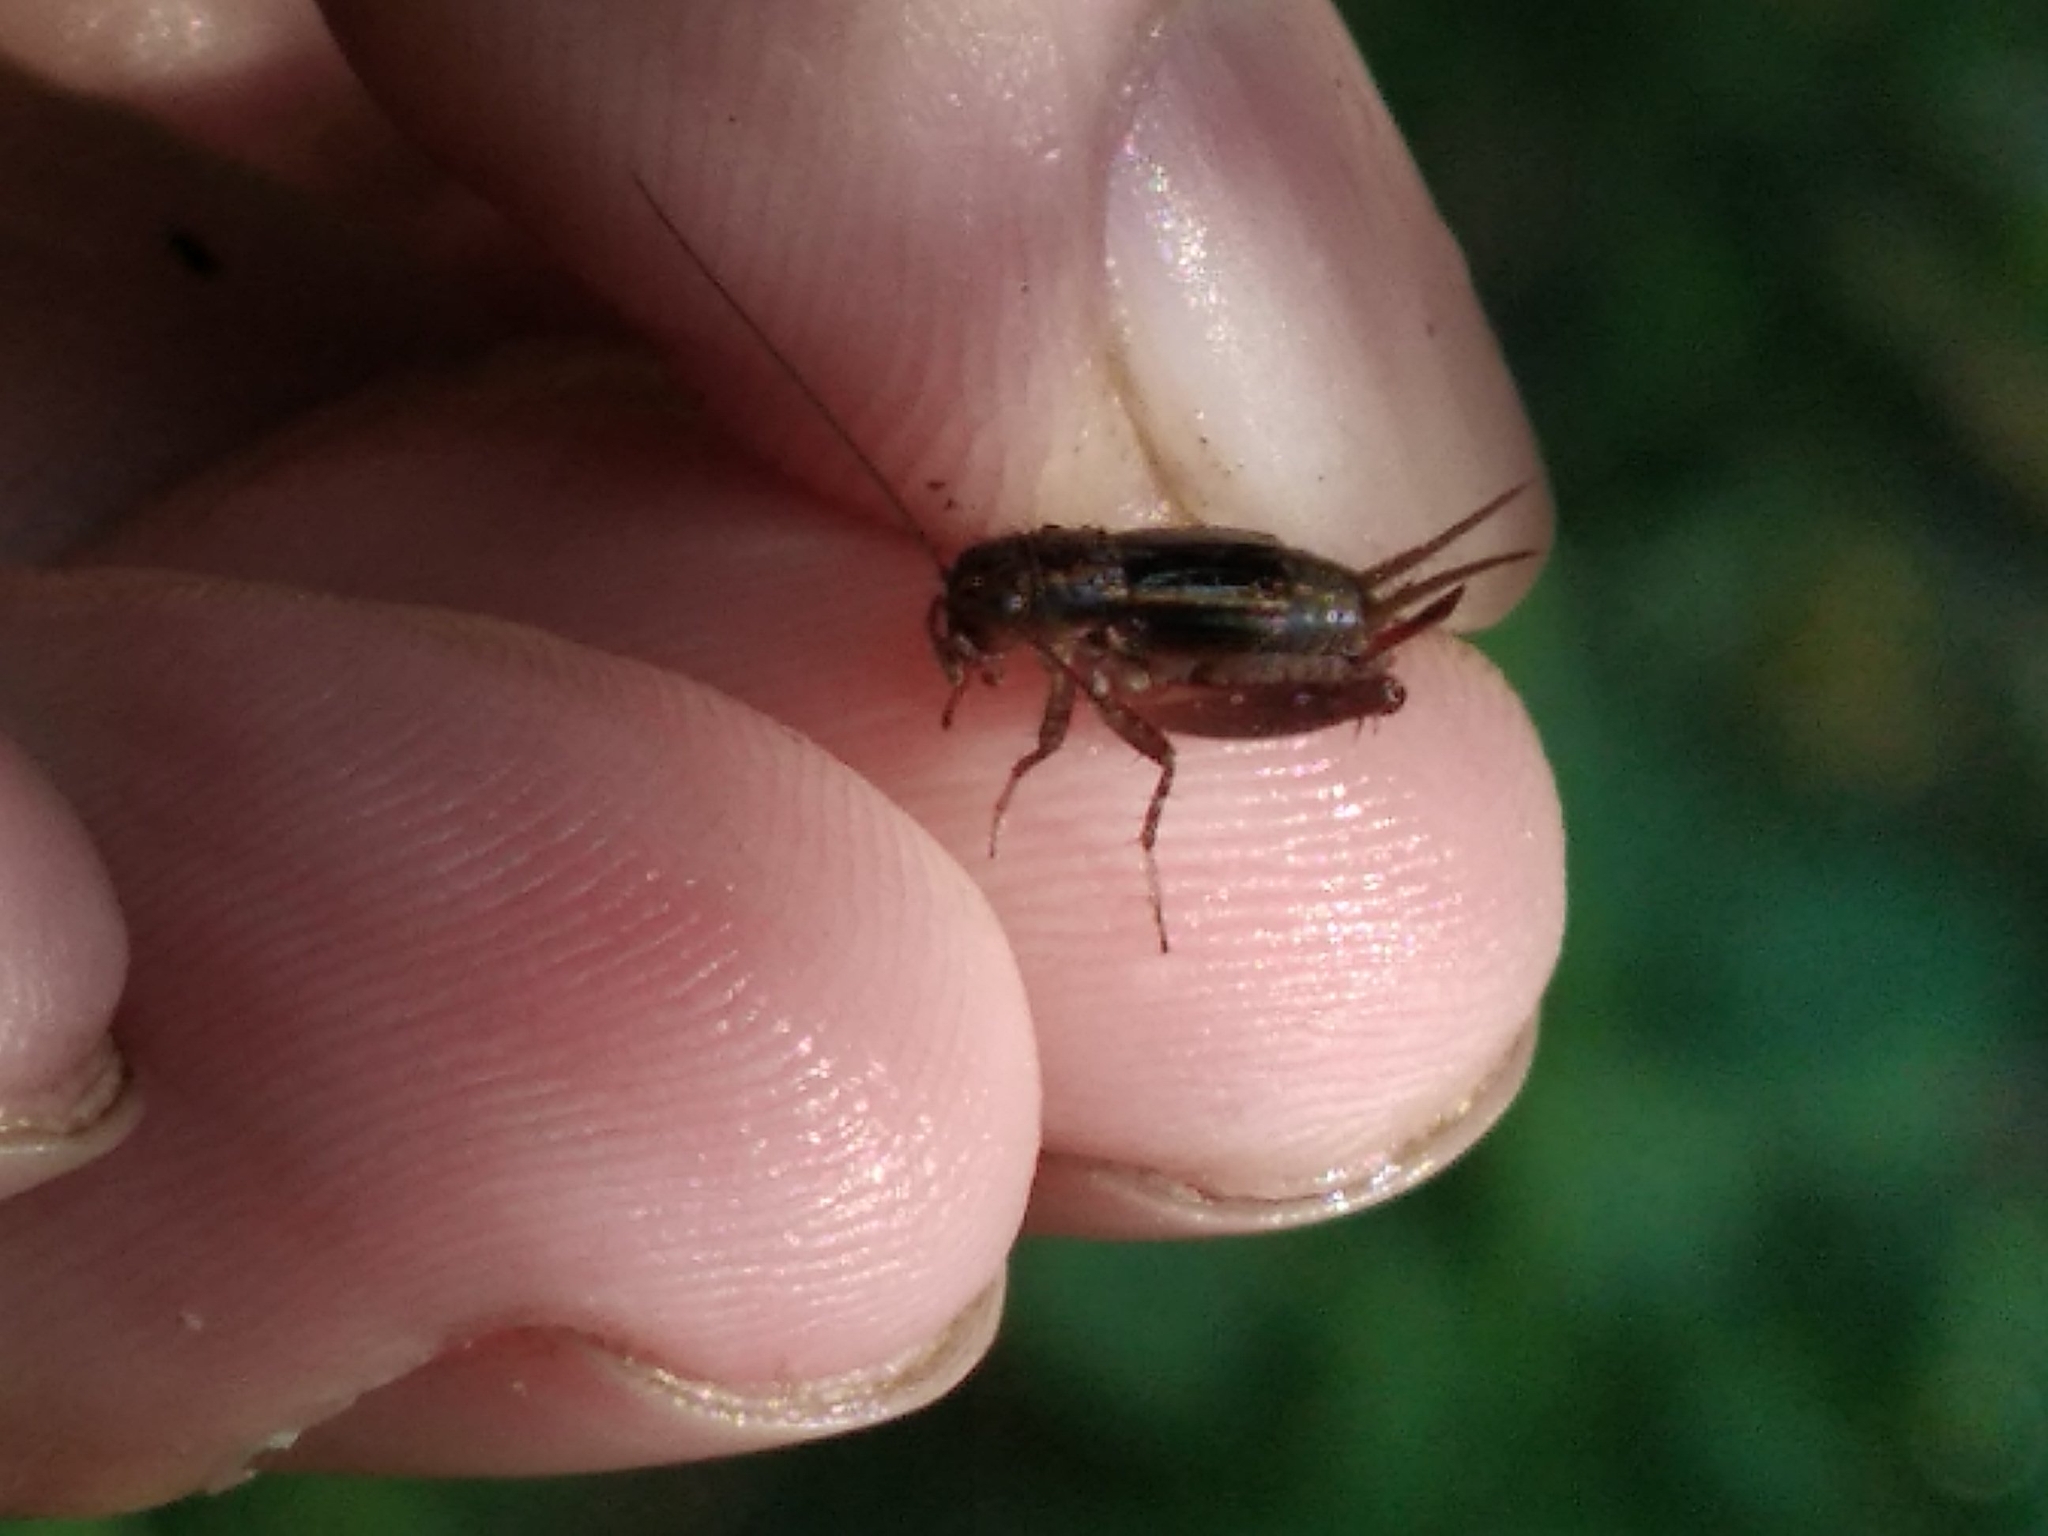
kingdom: Animalia
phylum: Arthropoda
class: Insecta
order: Orthoptera
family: Trigonidiidae
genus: Pteronemobius
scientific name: Pteronemobius heydenii
